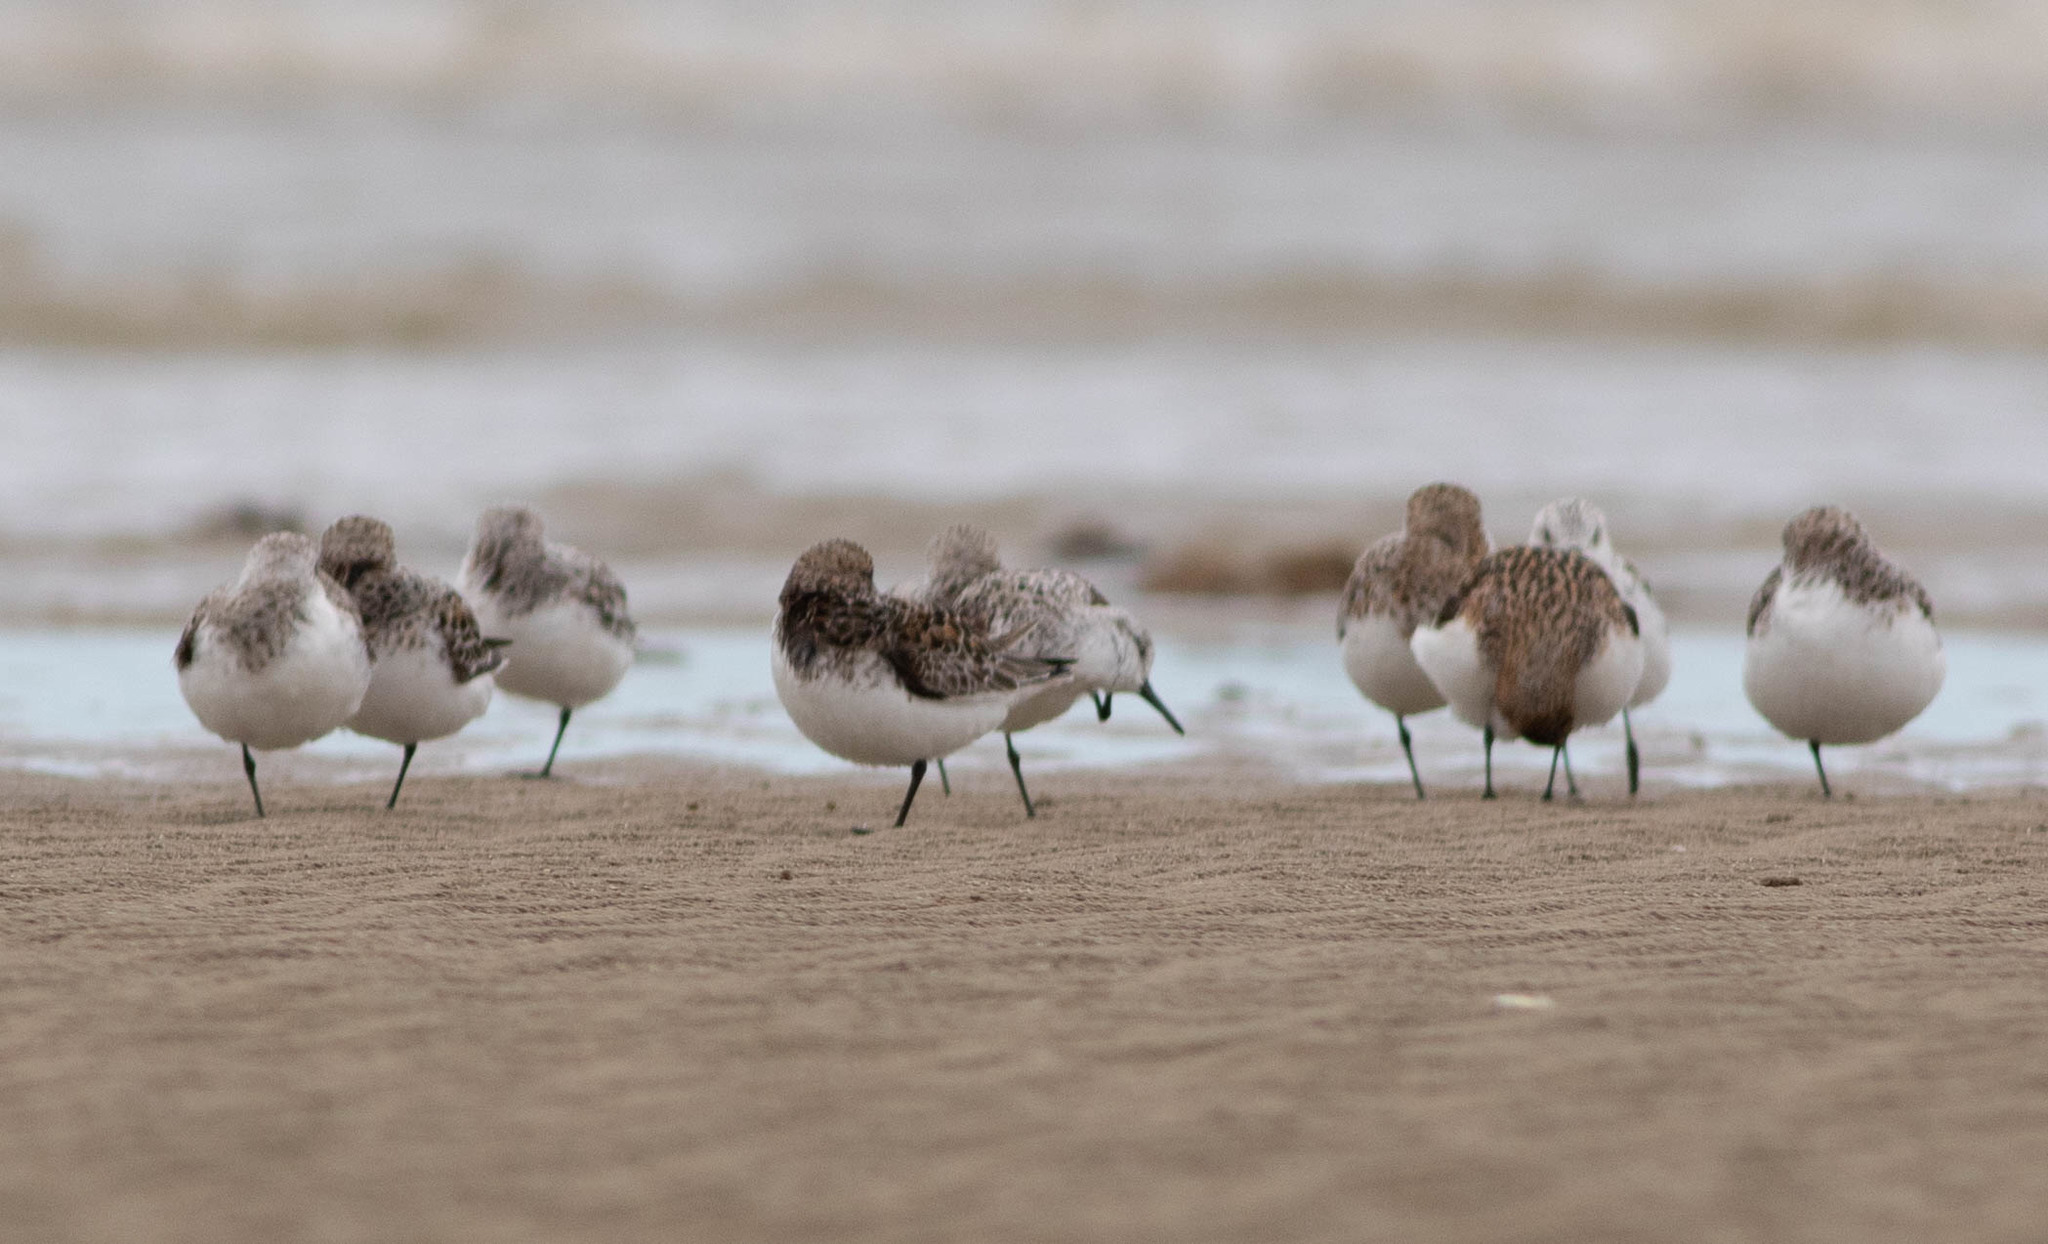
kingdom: Animalia
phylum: Chordata
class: Aves
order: Charadriiformes
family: Scolopacidae
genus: Calidris
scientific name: Calidris alba
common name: Sanderling
